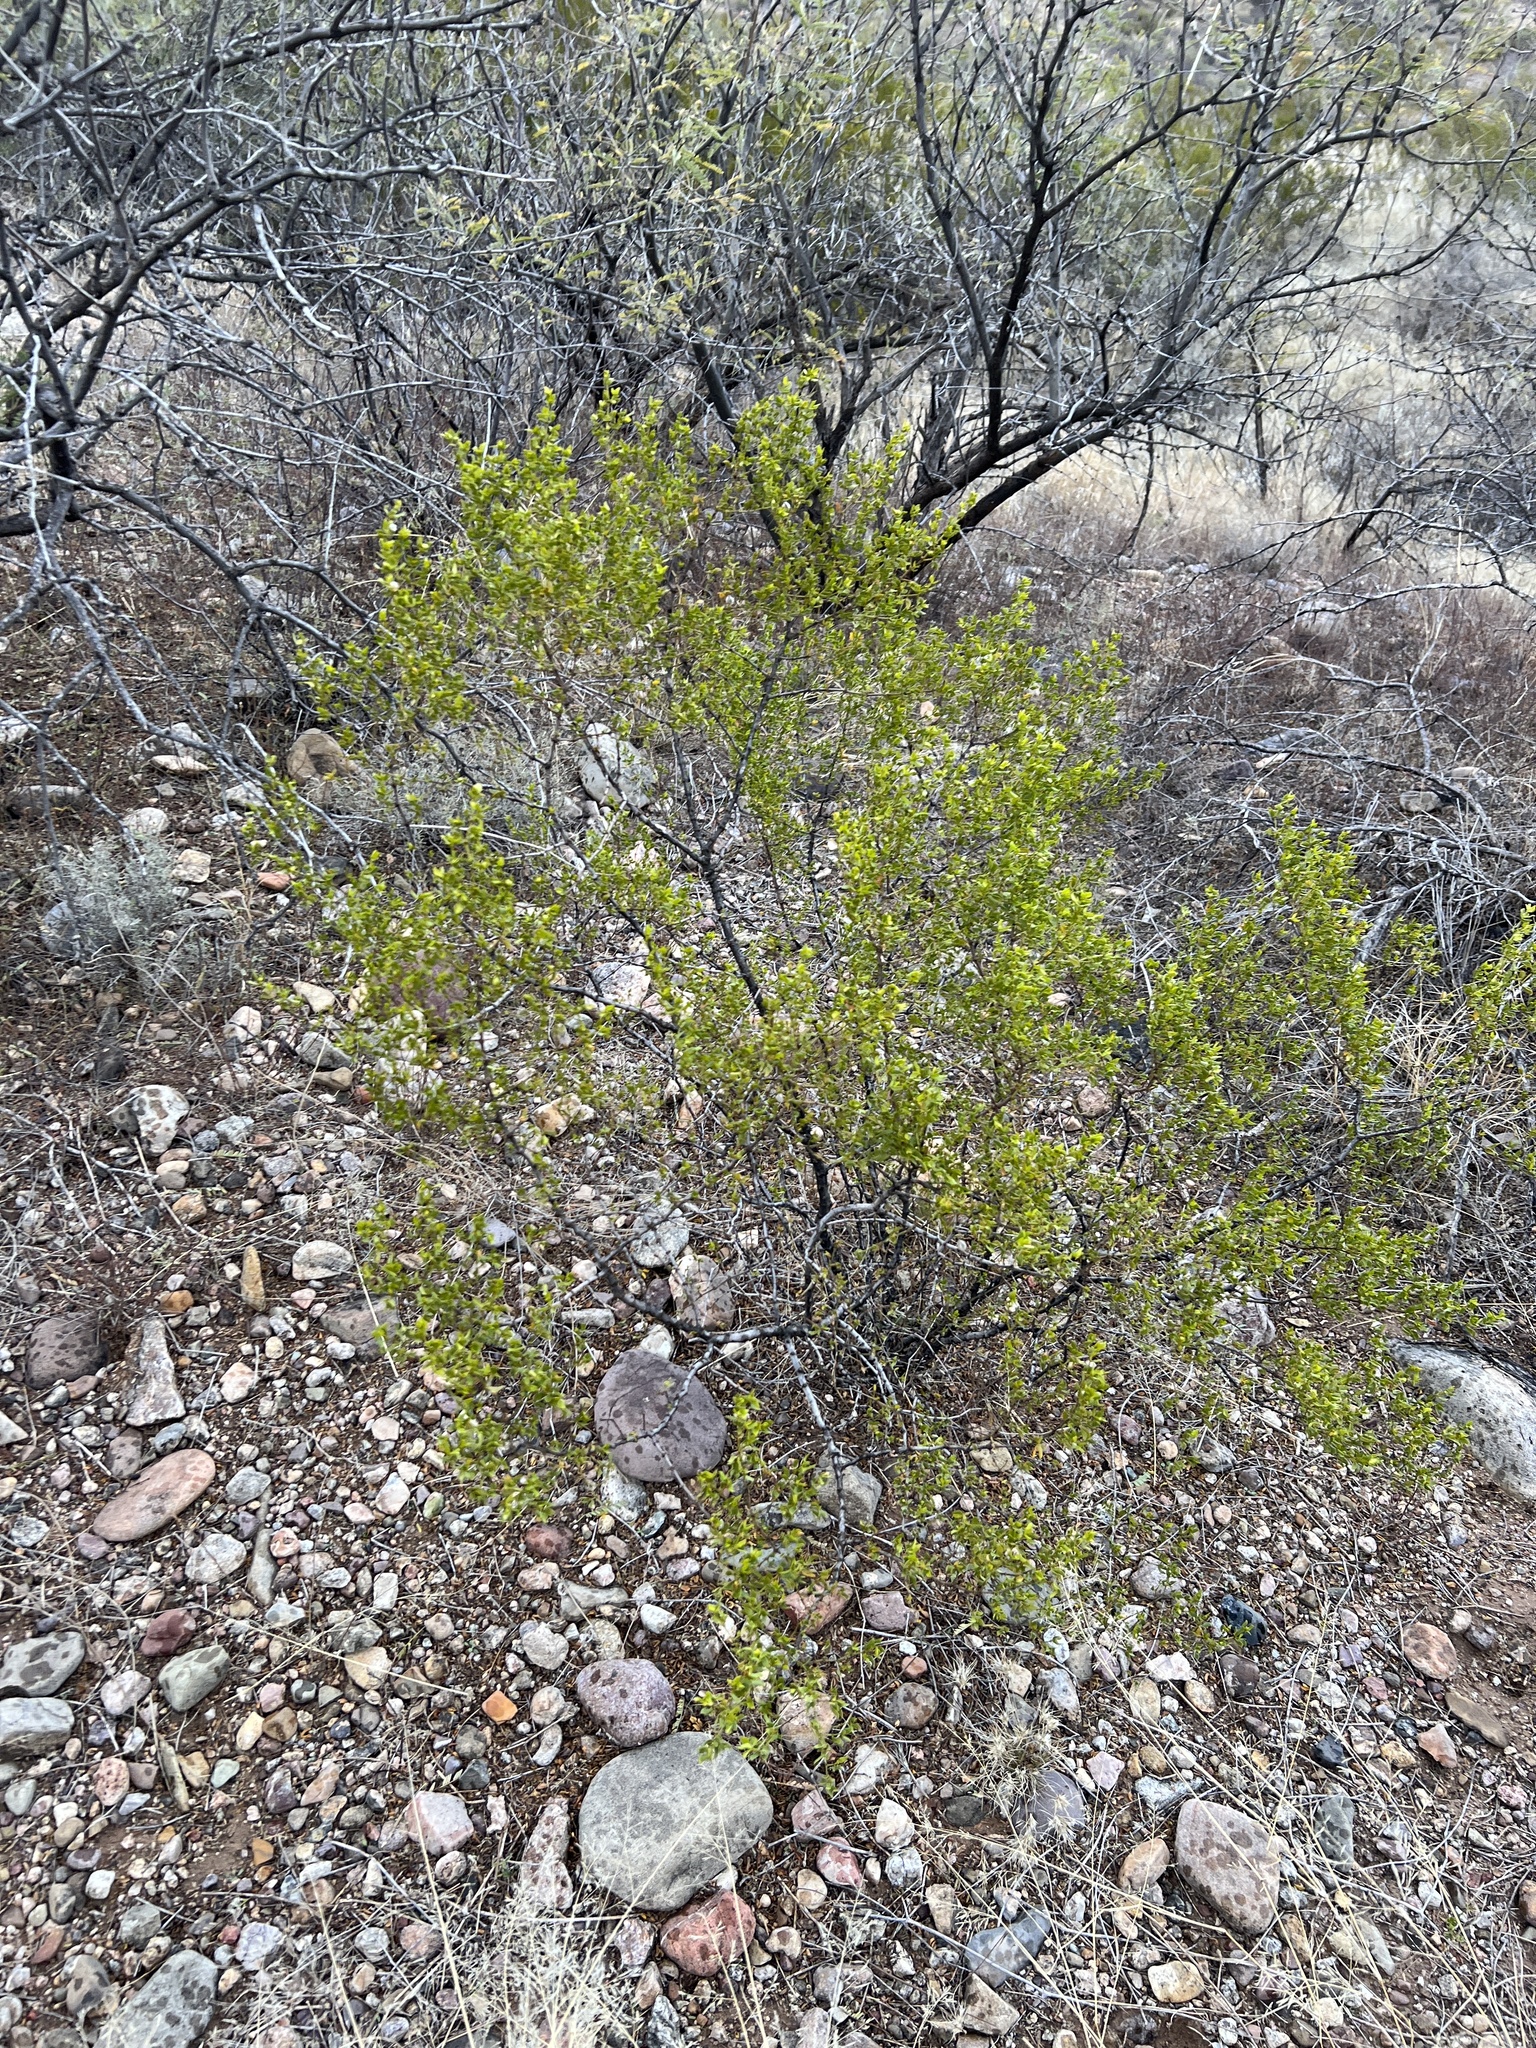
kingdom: Plantae
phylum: Tracheophyta
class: Magnoliopsida
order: Zygophyllales
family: Zygophyllaceae
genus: Larrea
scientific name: Larrea tridentata
